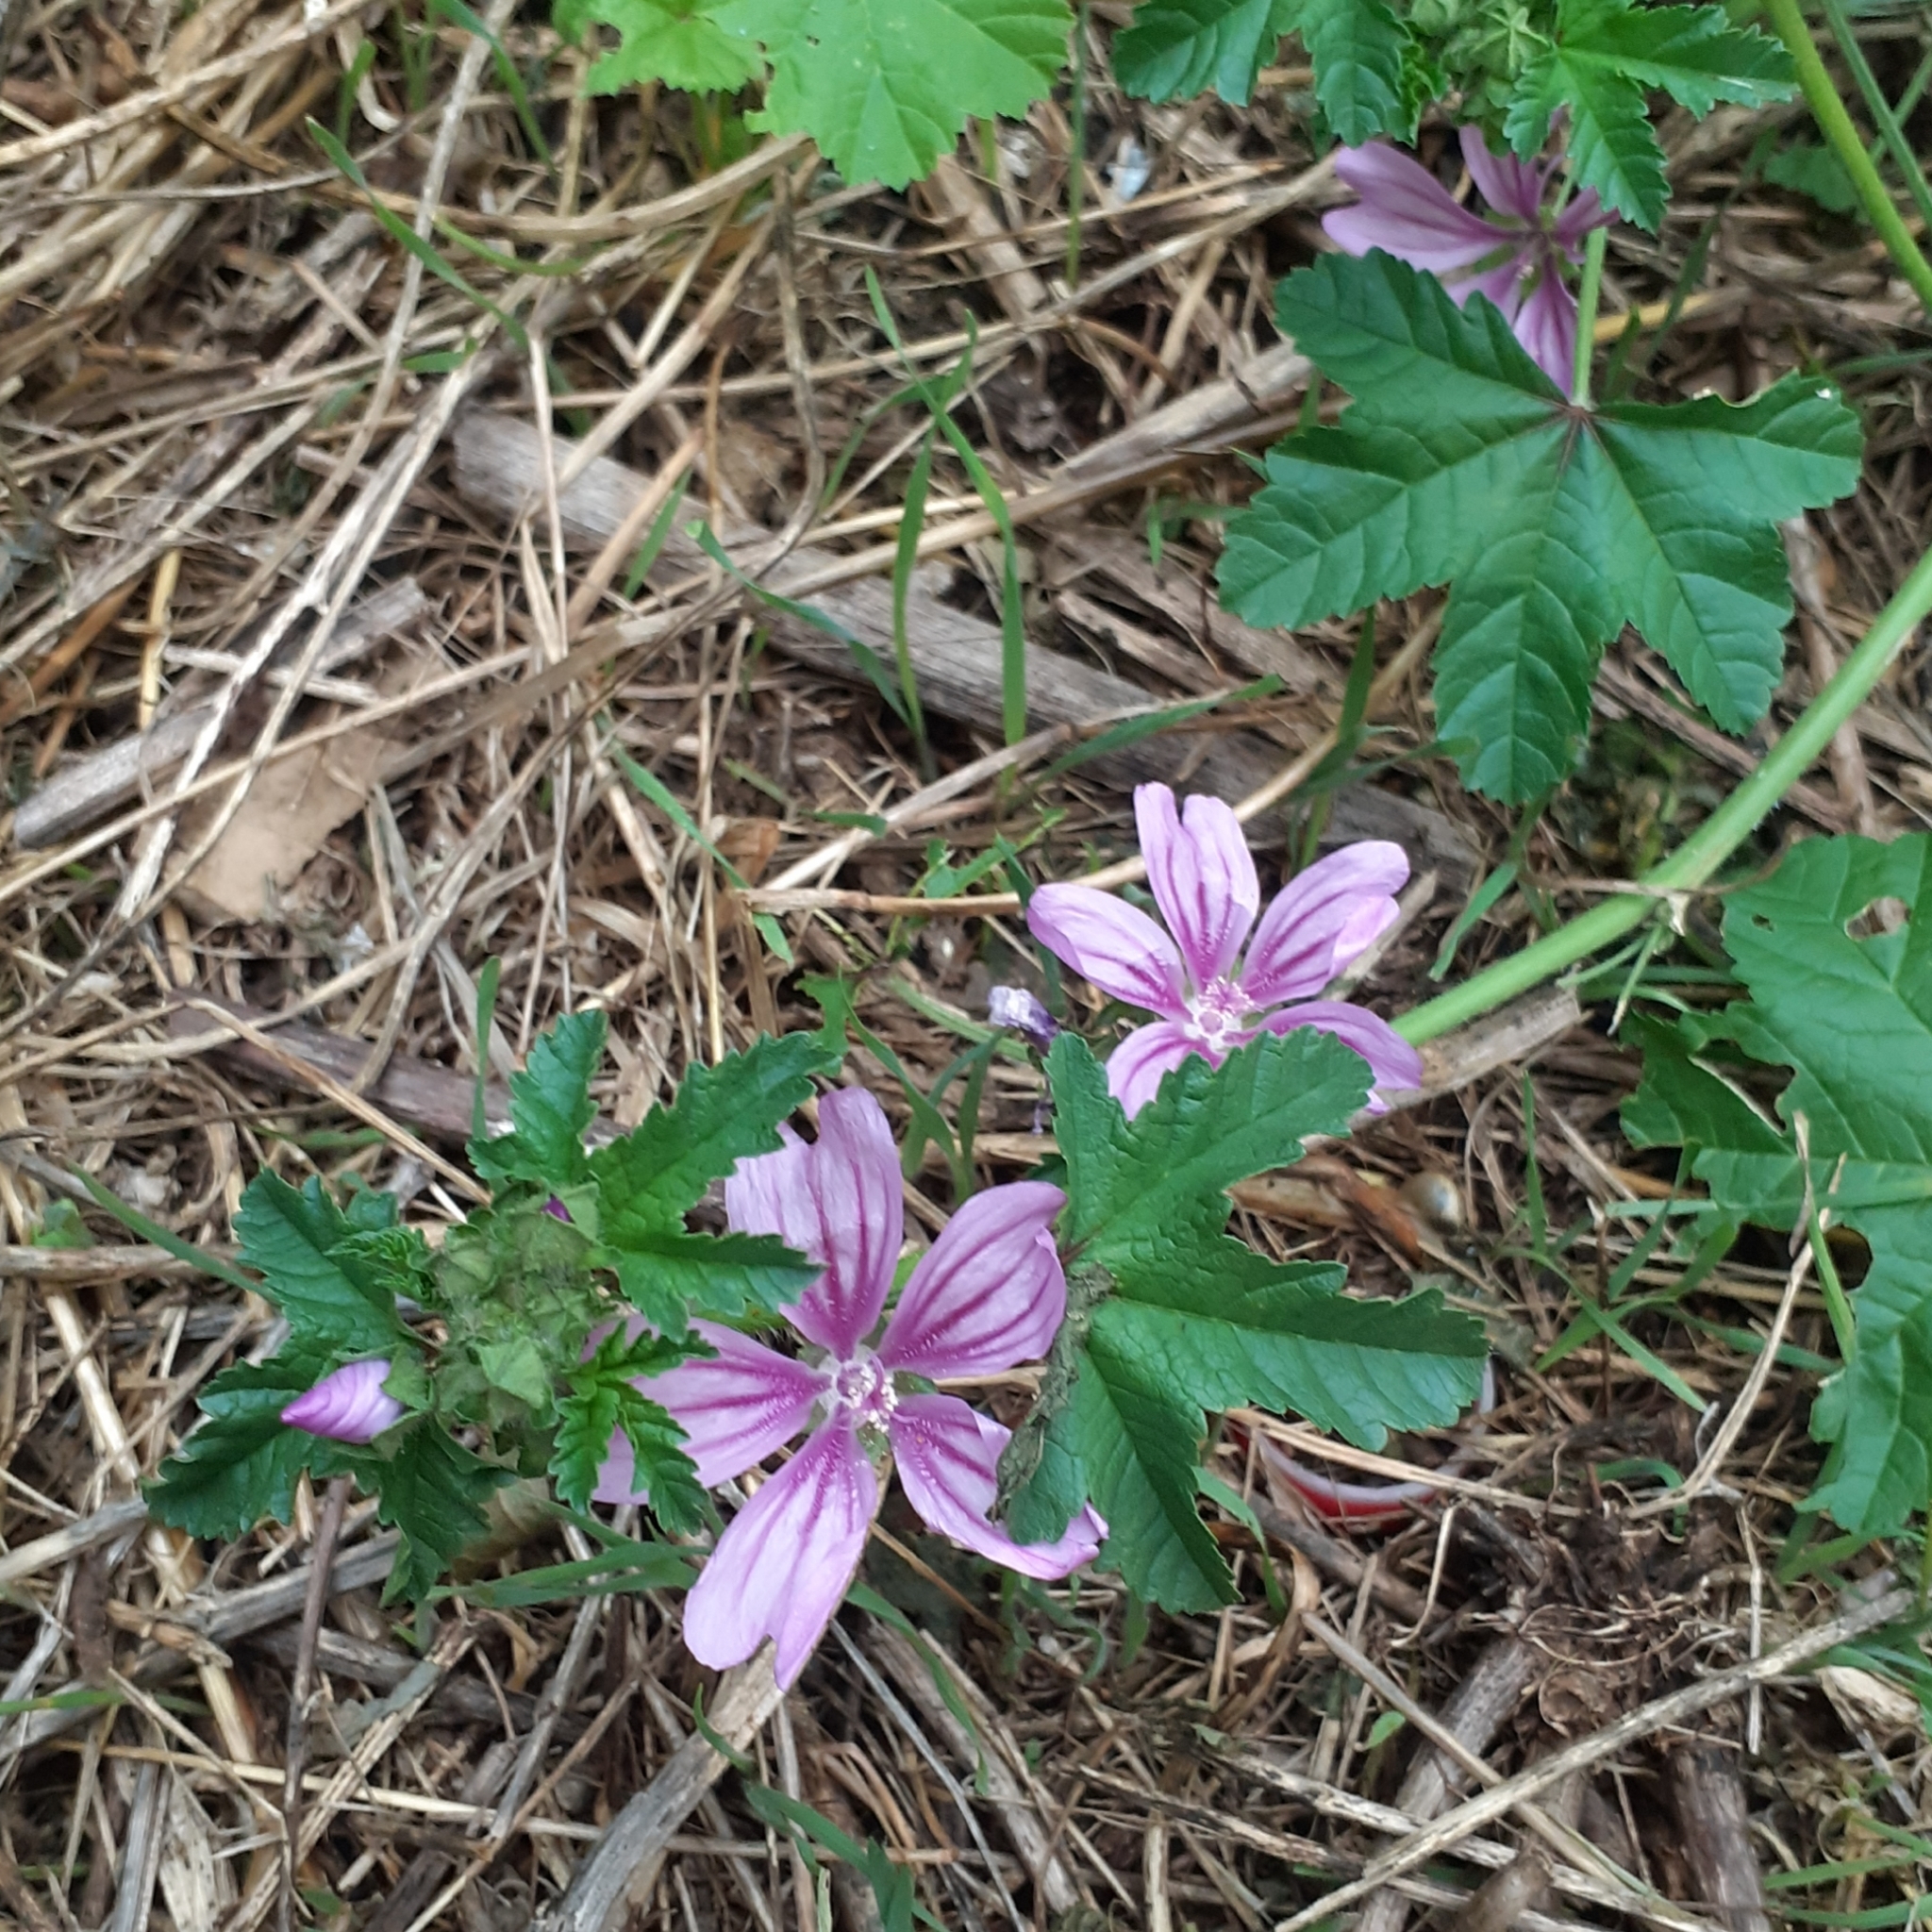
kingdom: Plantae
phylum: Tracheophyta
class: Magnoliopsida
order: Malvales
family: Malvaceae
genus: Malva
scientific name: Malva sylvestris
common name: Common mallow
